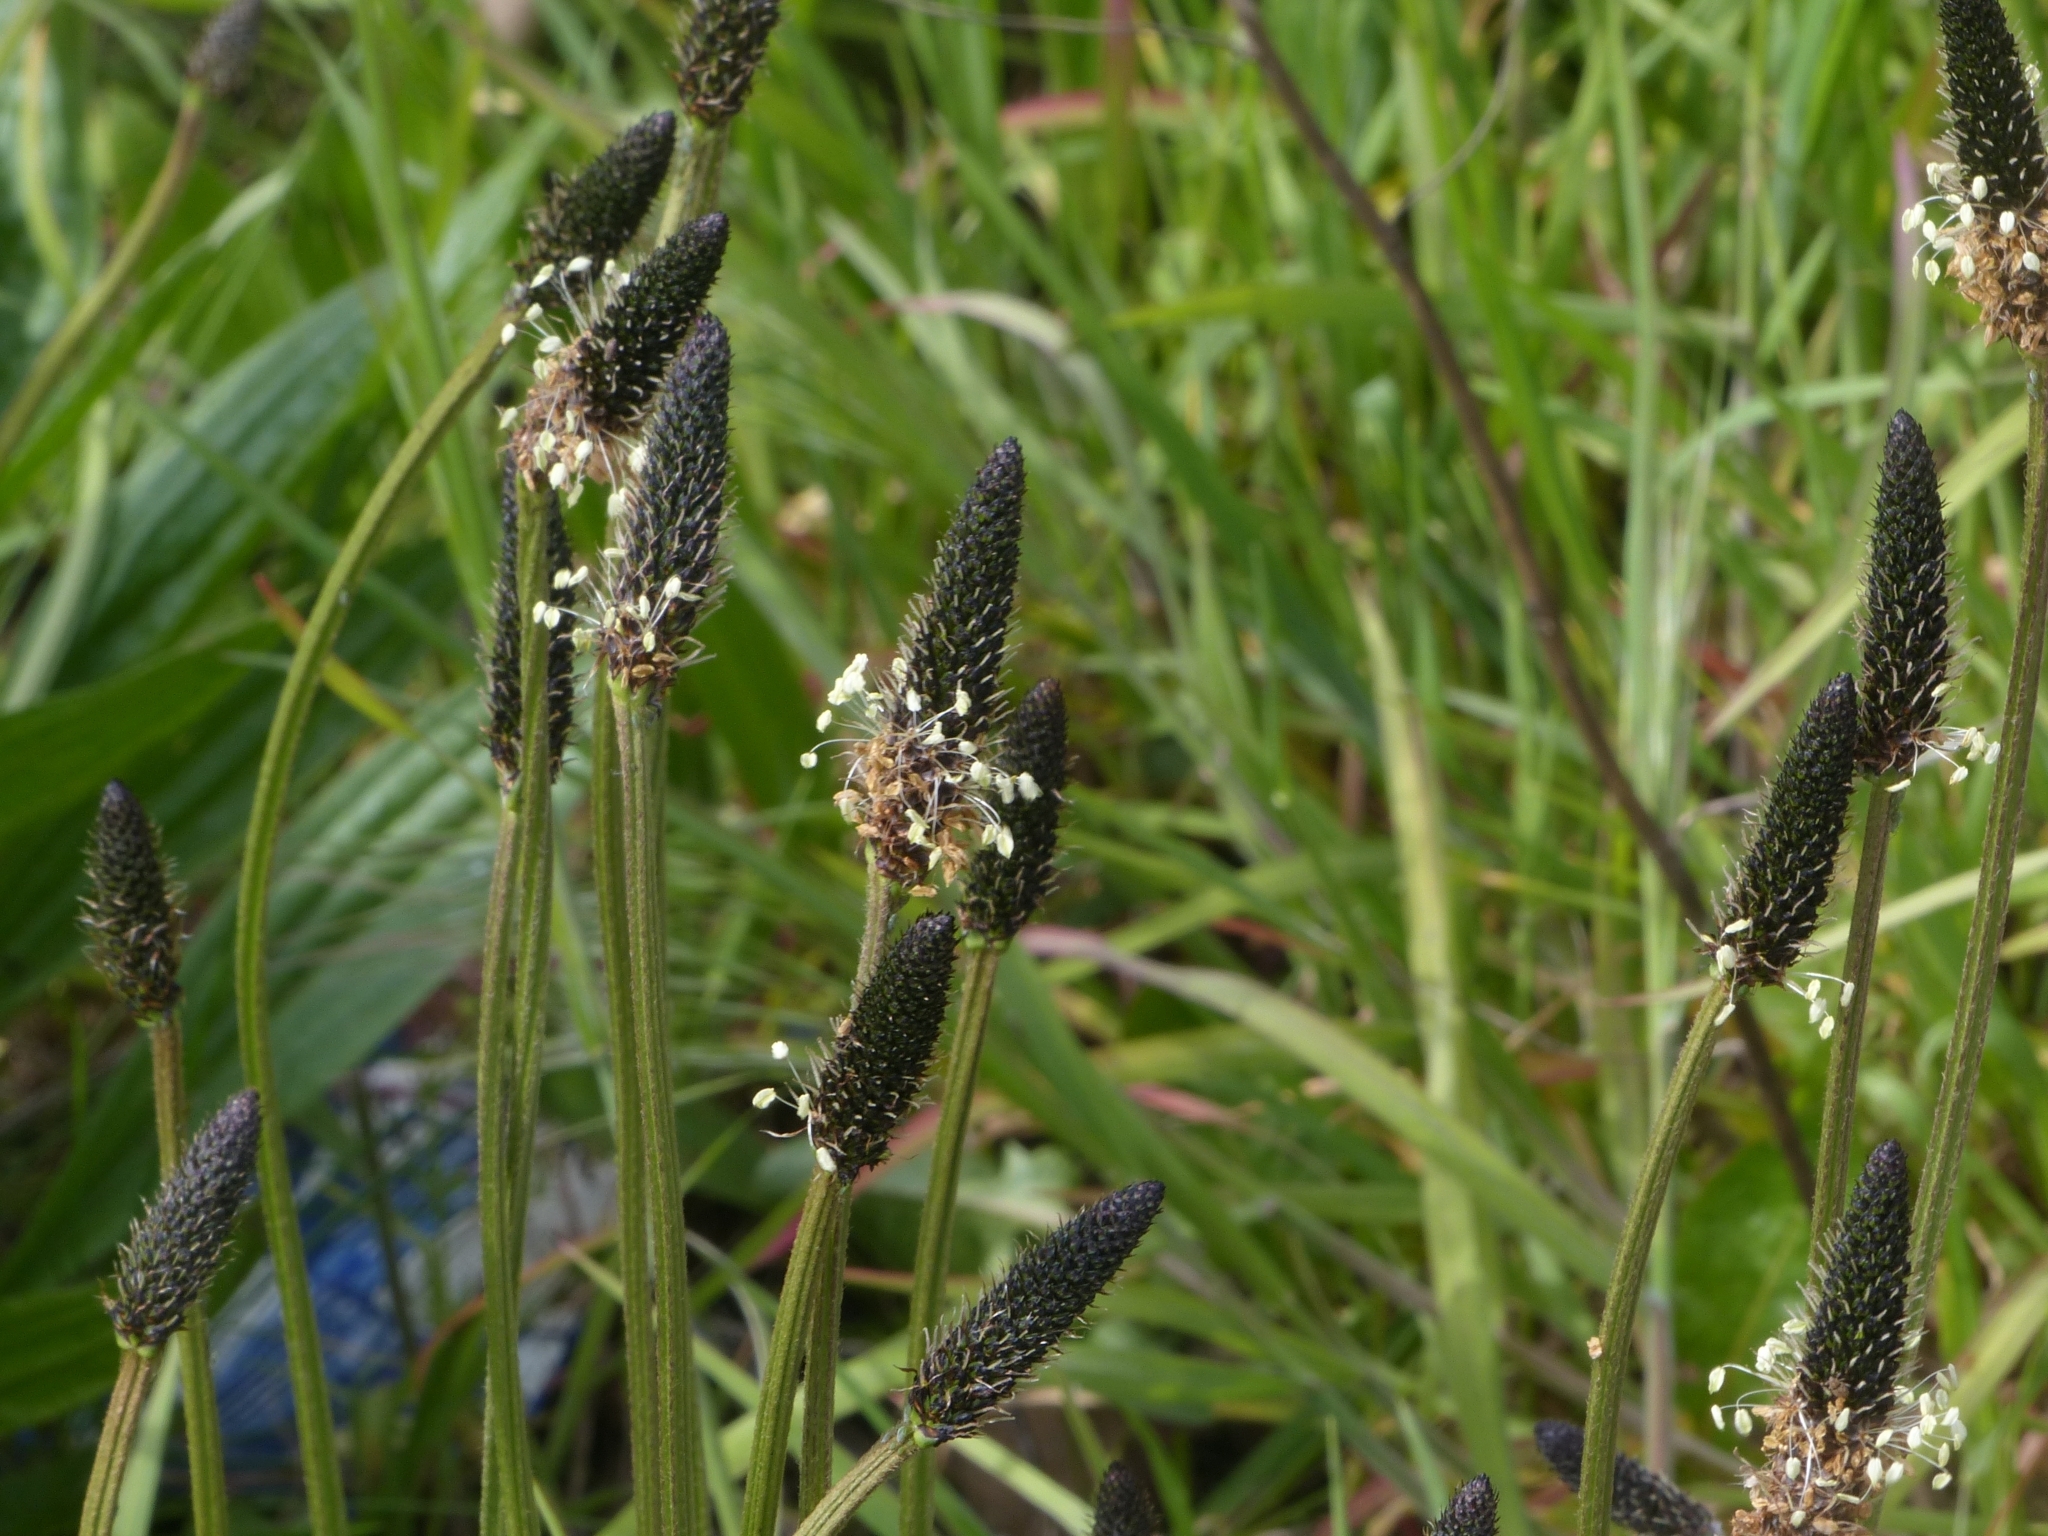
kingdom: Plantae
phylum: Tracheophyta
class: Magnoliopsida
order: Lamiales
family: Plantaginaceae
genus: Plantago
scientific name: Plantago lanceolata
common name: Ribwort plantain
